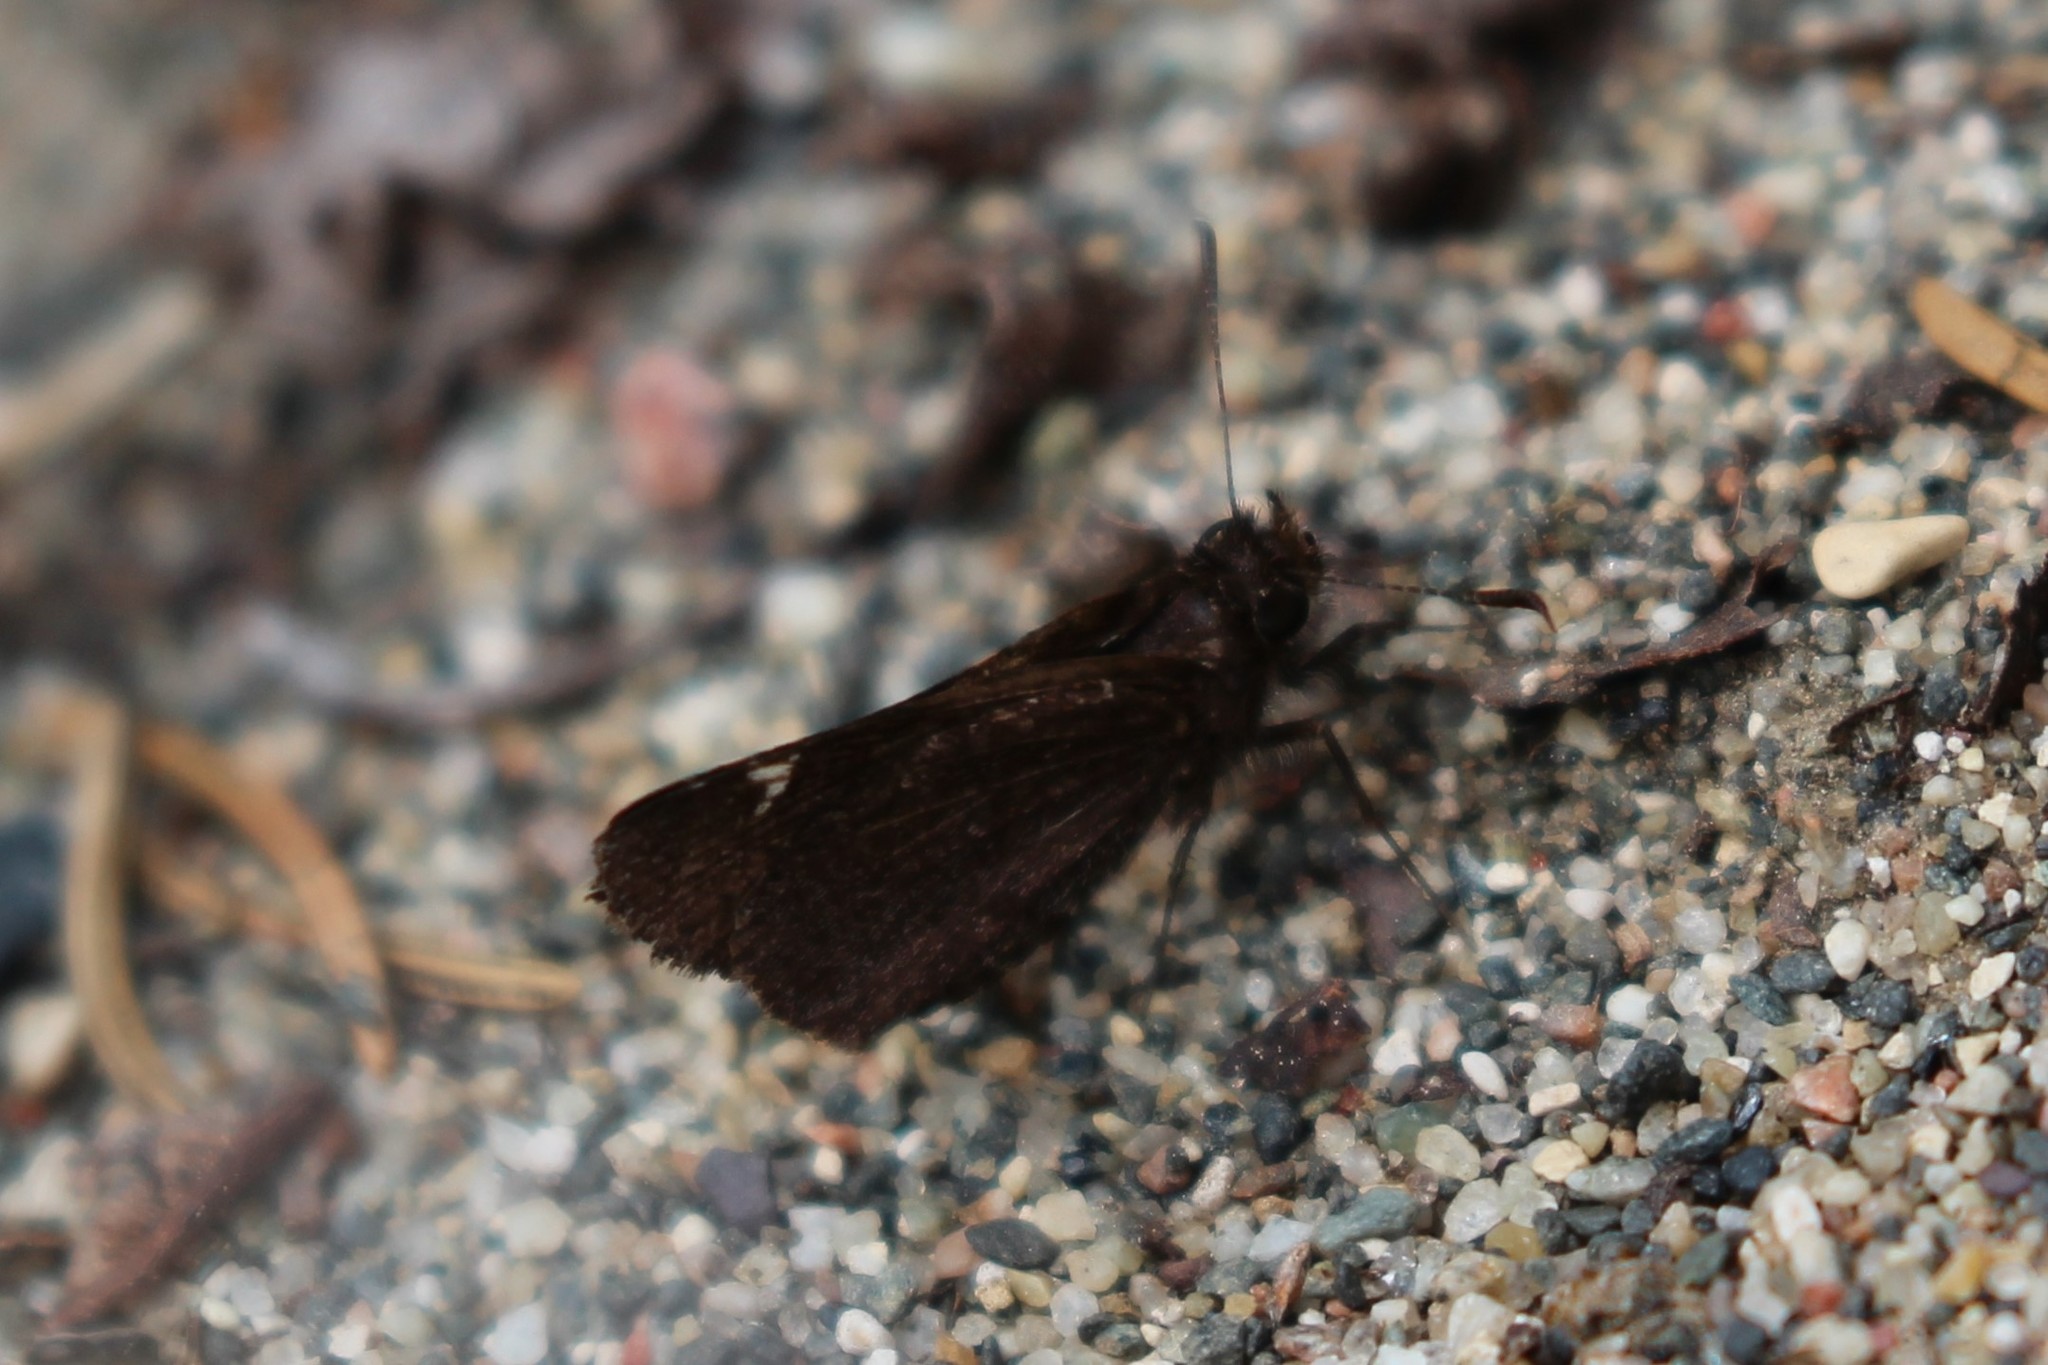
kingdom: Animalia
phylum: Arthropoda
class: Insecta
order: Lepidoptera
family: Hesperiidae
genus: Mastor
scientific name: Mastor vialis
